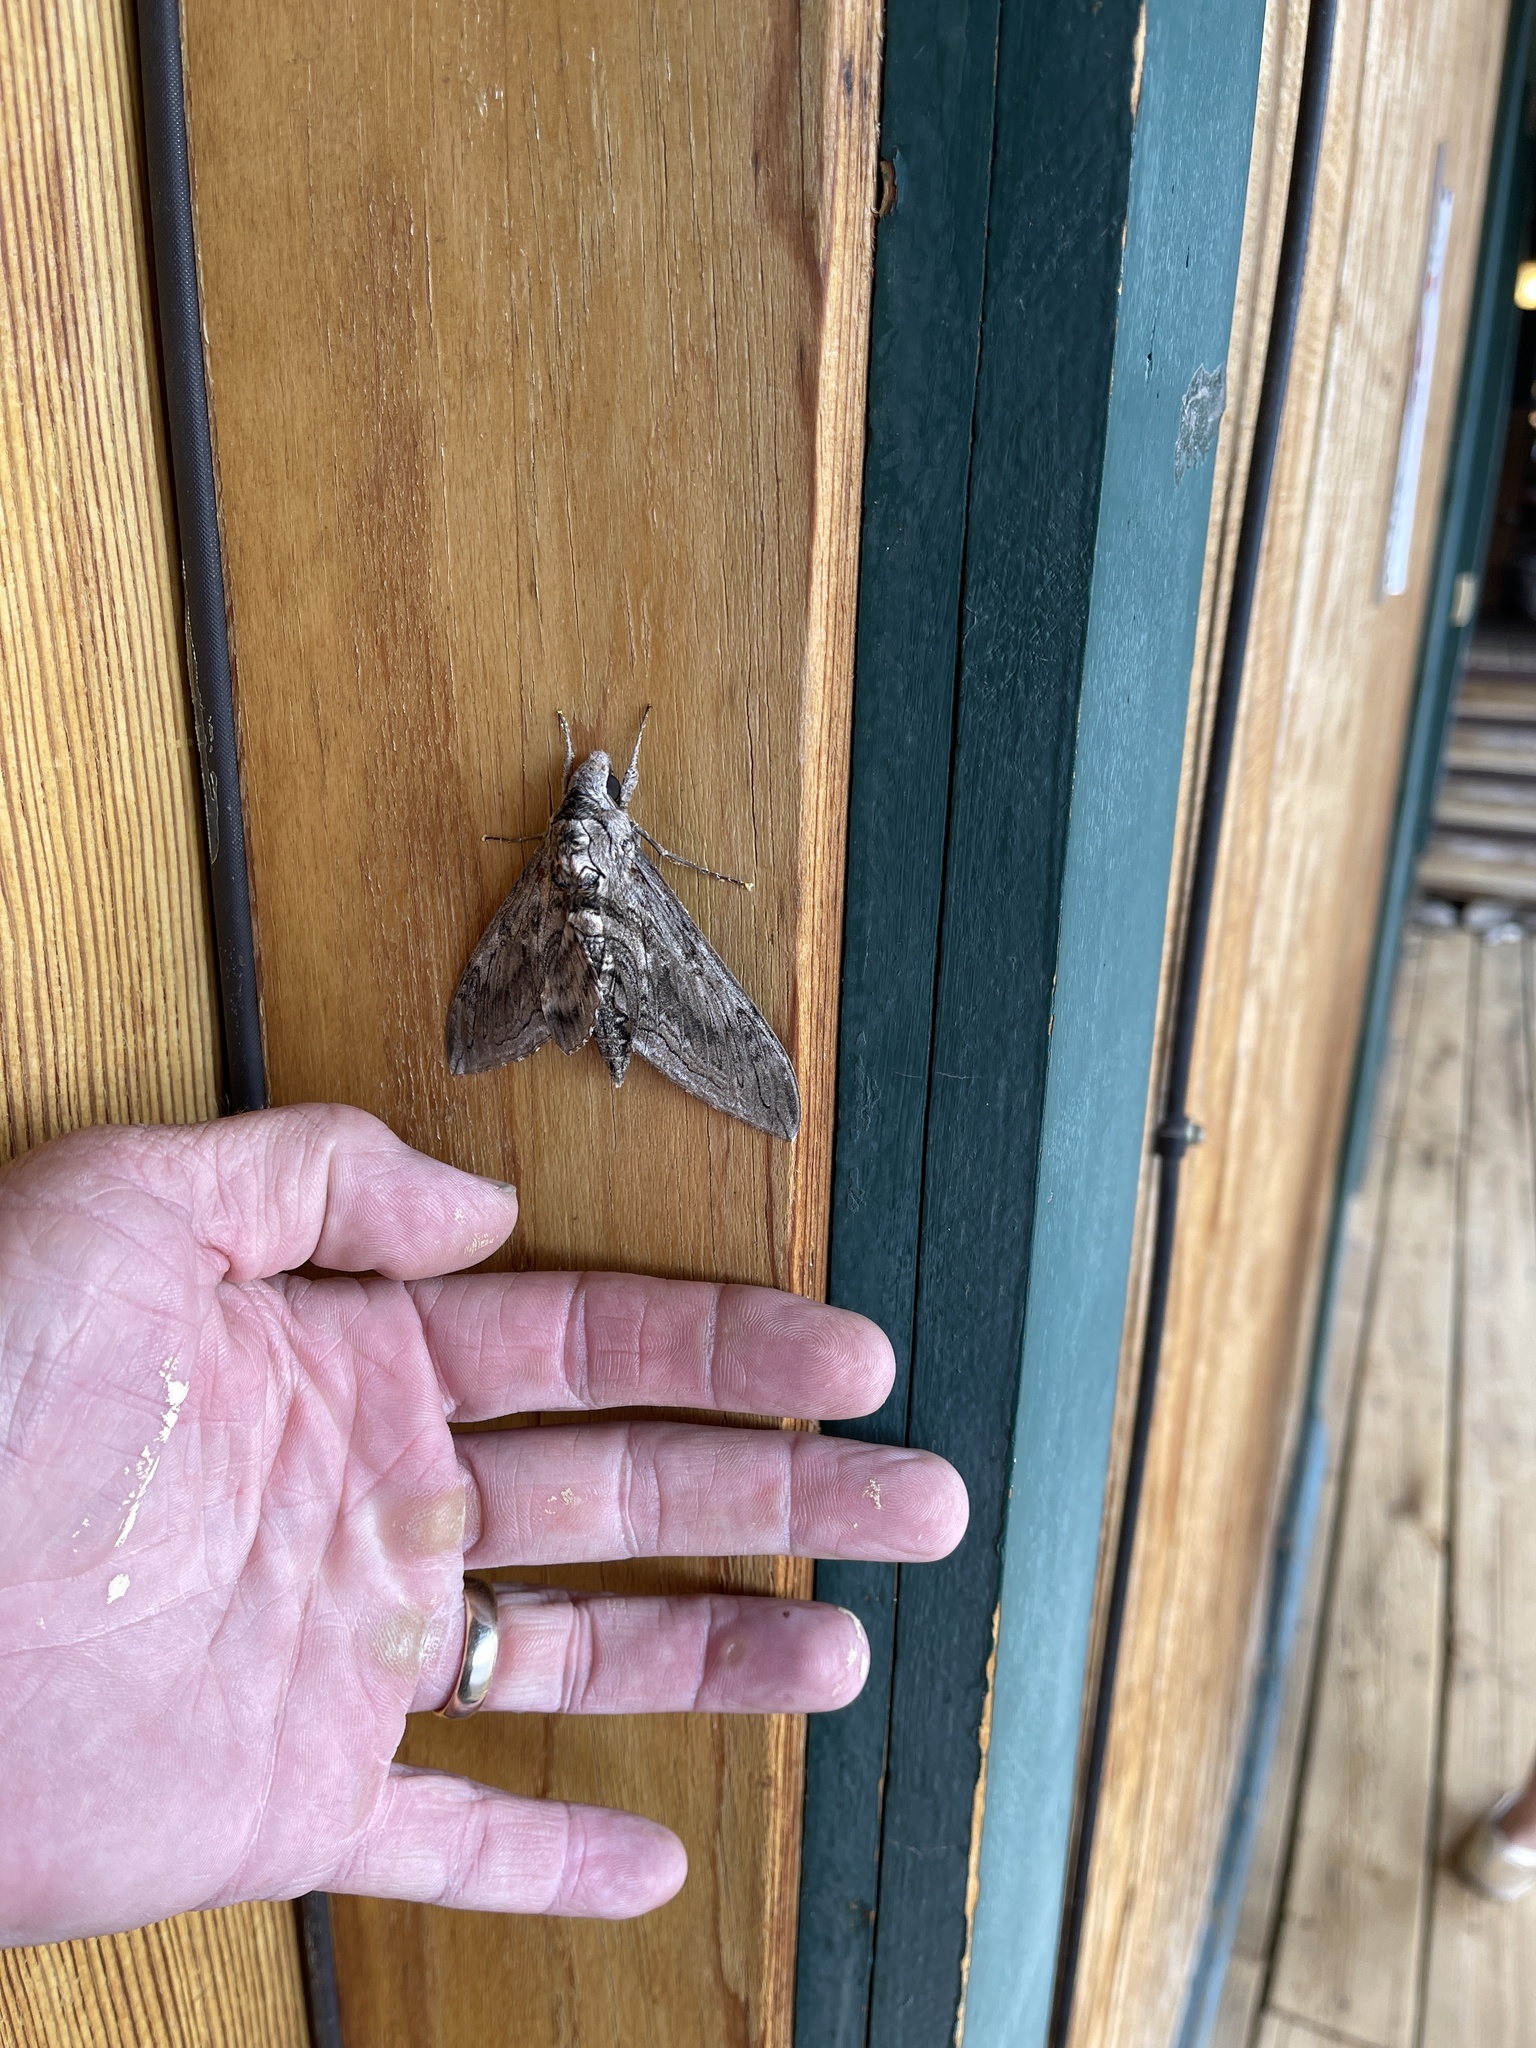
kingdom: Animalia
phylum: Arthropoda
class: Insecta
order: Lepidoptera
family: Sphingidae
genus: Manduca
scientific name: Manduca quinquemaculatus
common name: Five-spotted hawk-moth
